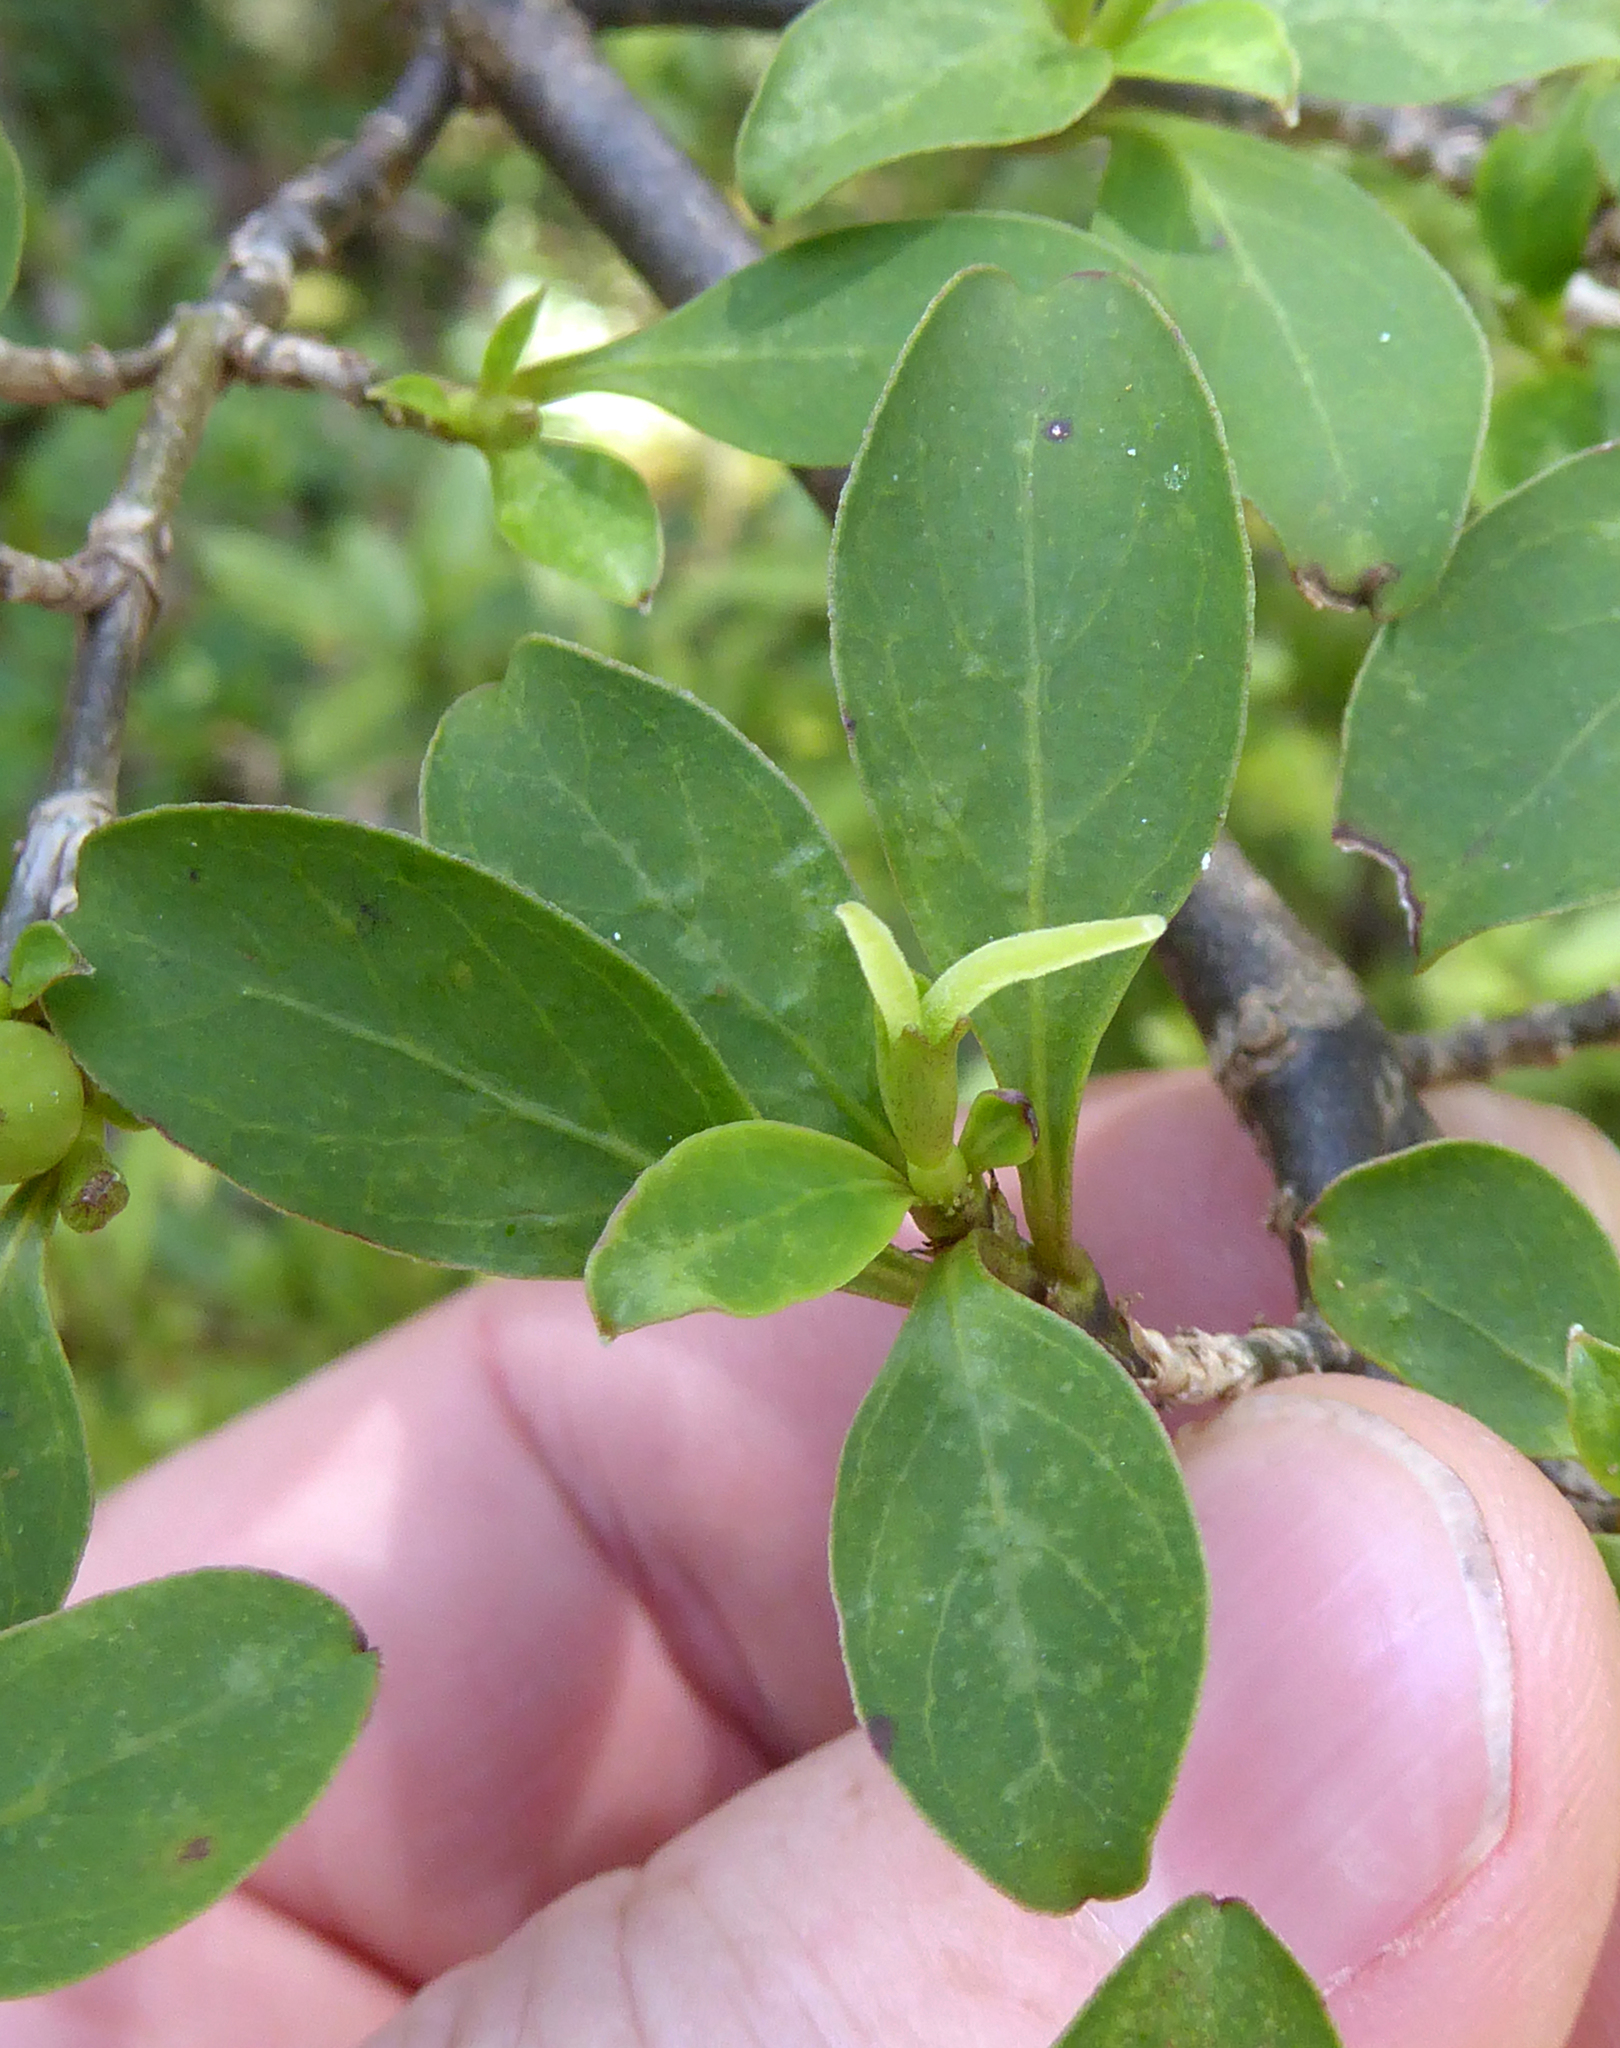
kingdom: Plantae
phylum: Tracheophyta
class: Magnoliopsida
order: Gentianales
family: Rubiaceae
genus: Coprosma
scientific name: Coprosma foetidissima
